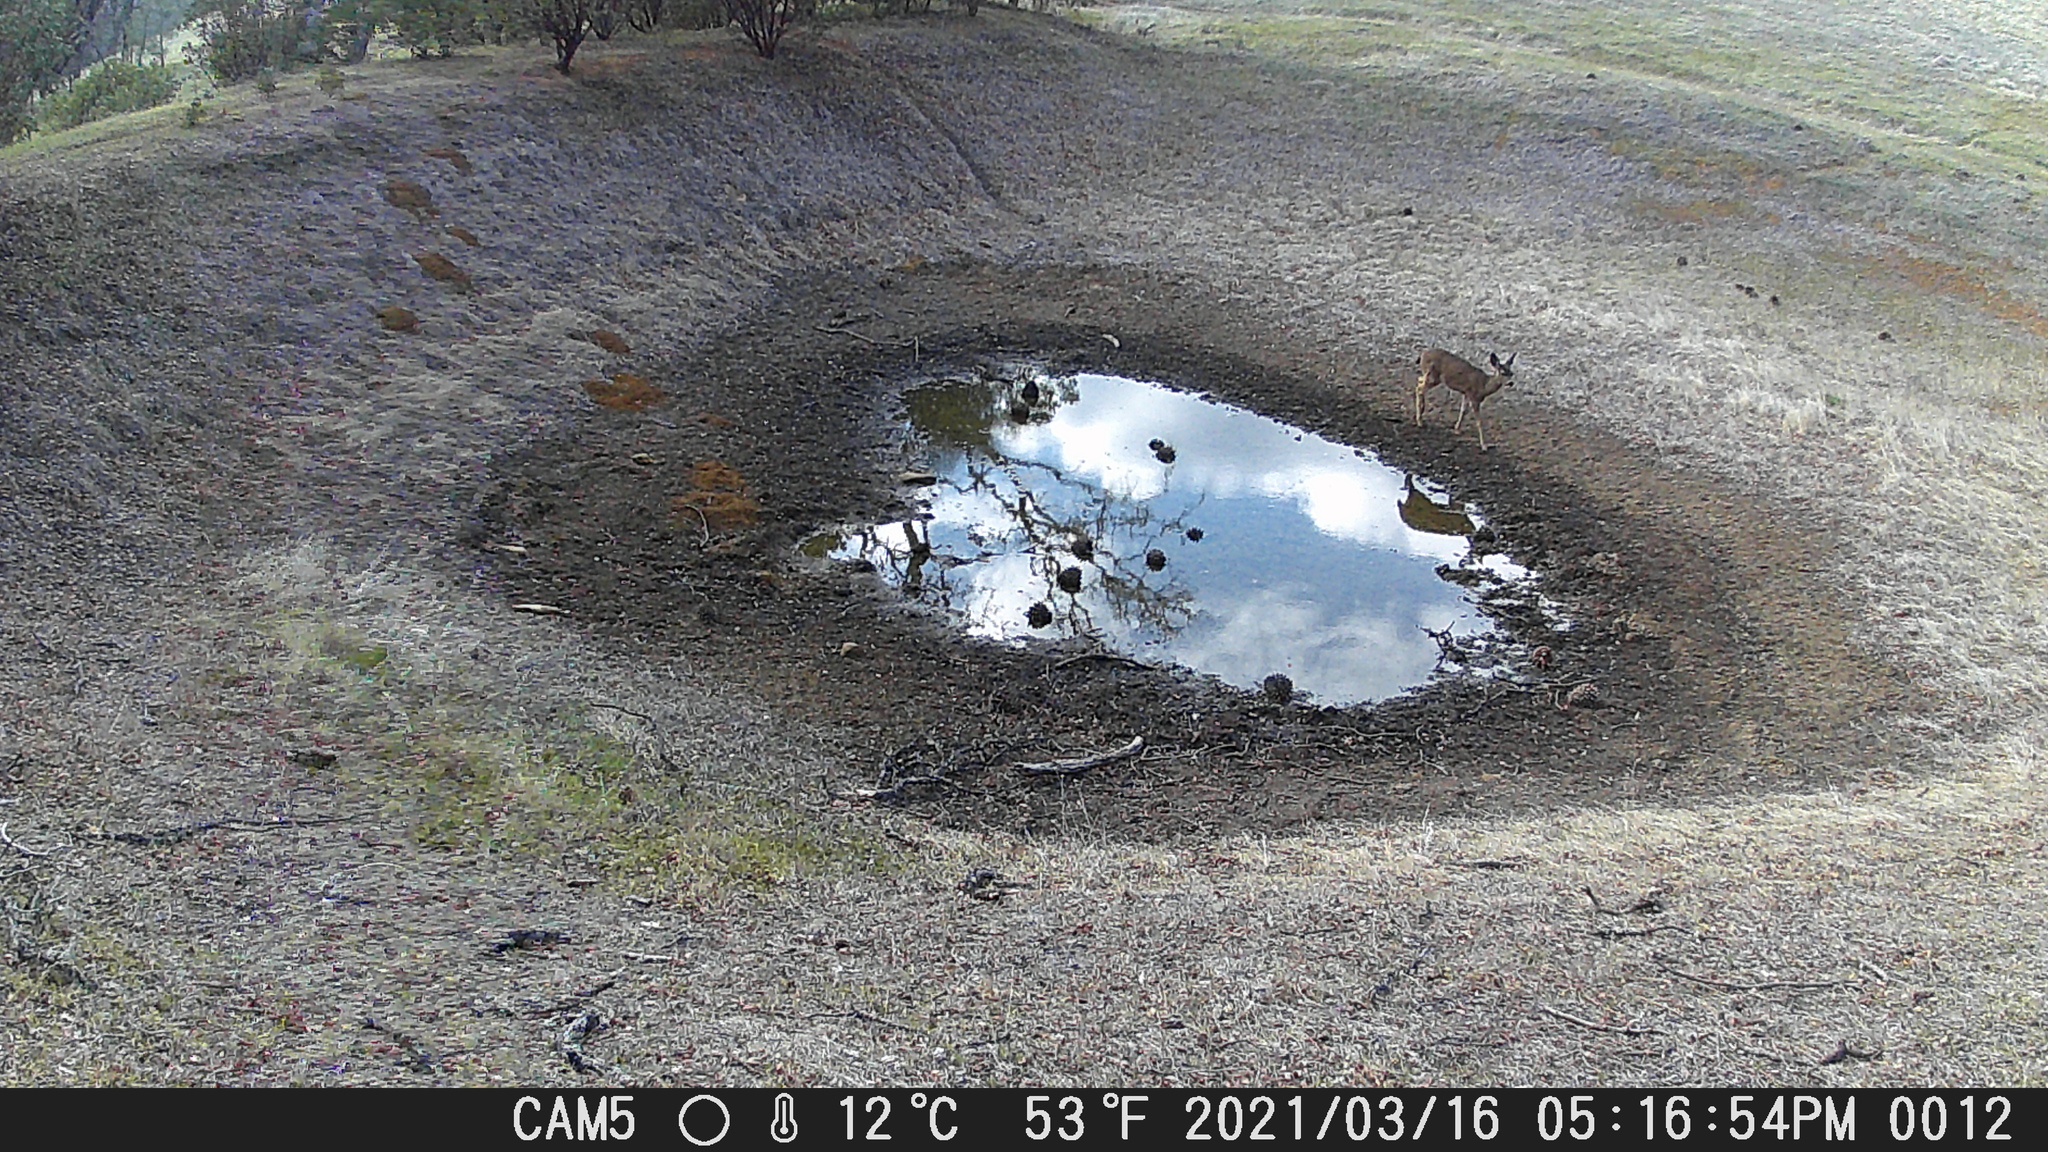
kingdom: Animalia
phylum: Chordata
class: Mammalia
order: Artiodactyla
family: Cervidae
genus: Odocoileus
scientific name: Odocoileus hemionus
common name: Mule deer
